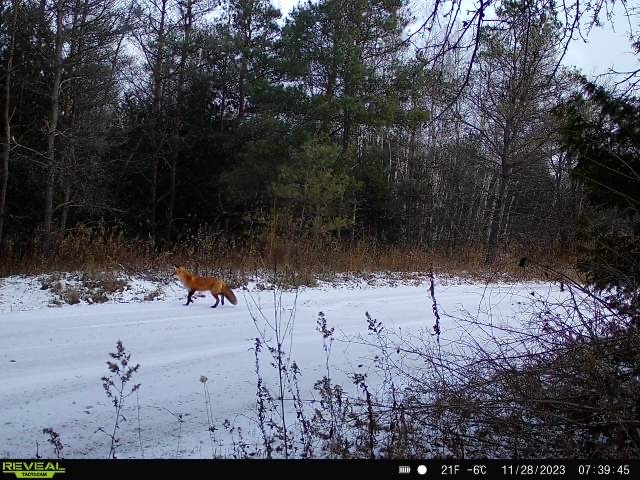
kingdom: Animalia
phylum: Chordata
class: Mammalia
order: Carnivora
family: Canidae
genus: Vulpes
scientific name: Vulpes vulpes
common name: Red fox
